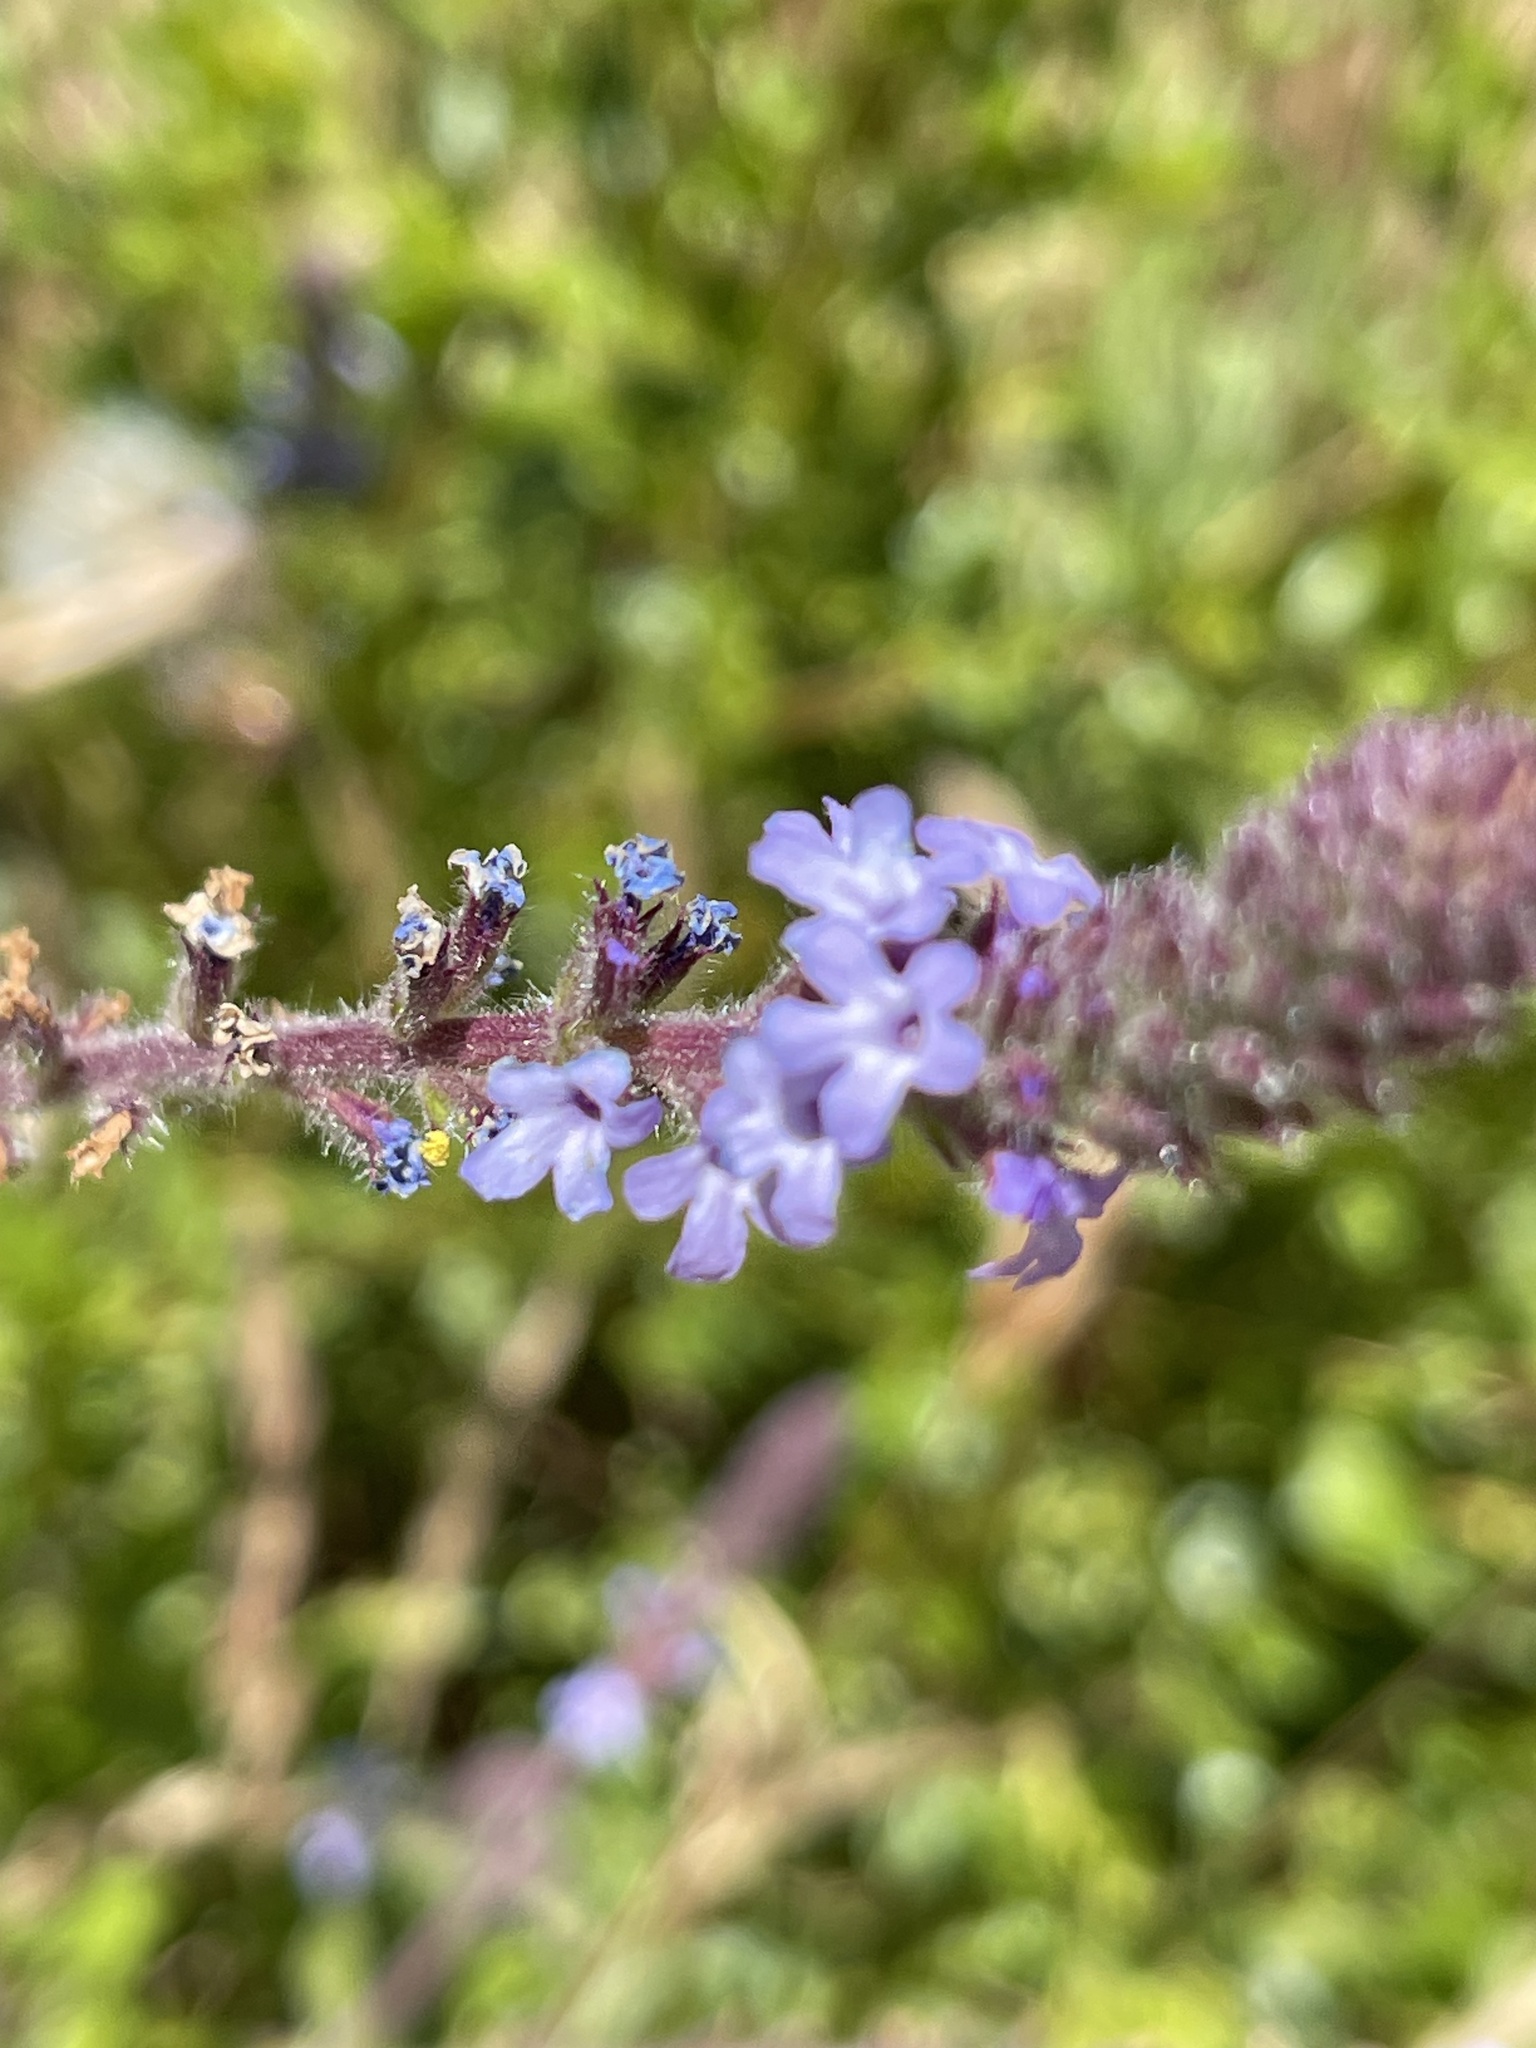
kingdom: Plantae
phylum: Tracheophyta
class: Magnoliopsida
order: Lamiales
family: Verbenaceae
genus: Verbena
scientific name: Verbena lasiostachys
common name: Vervain
